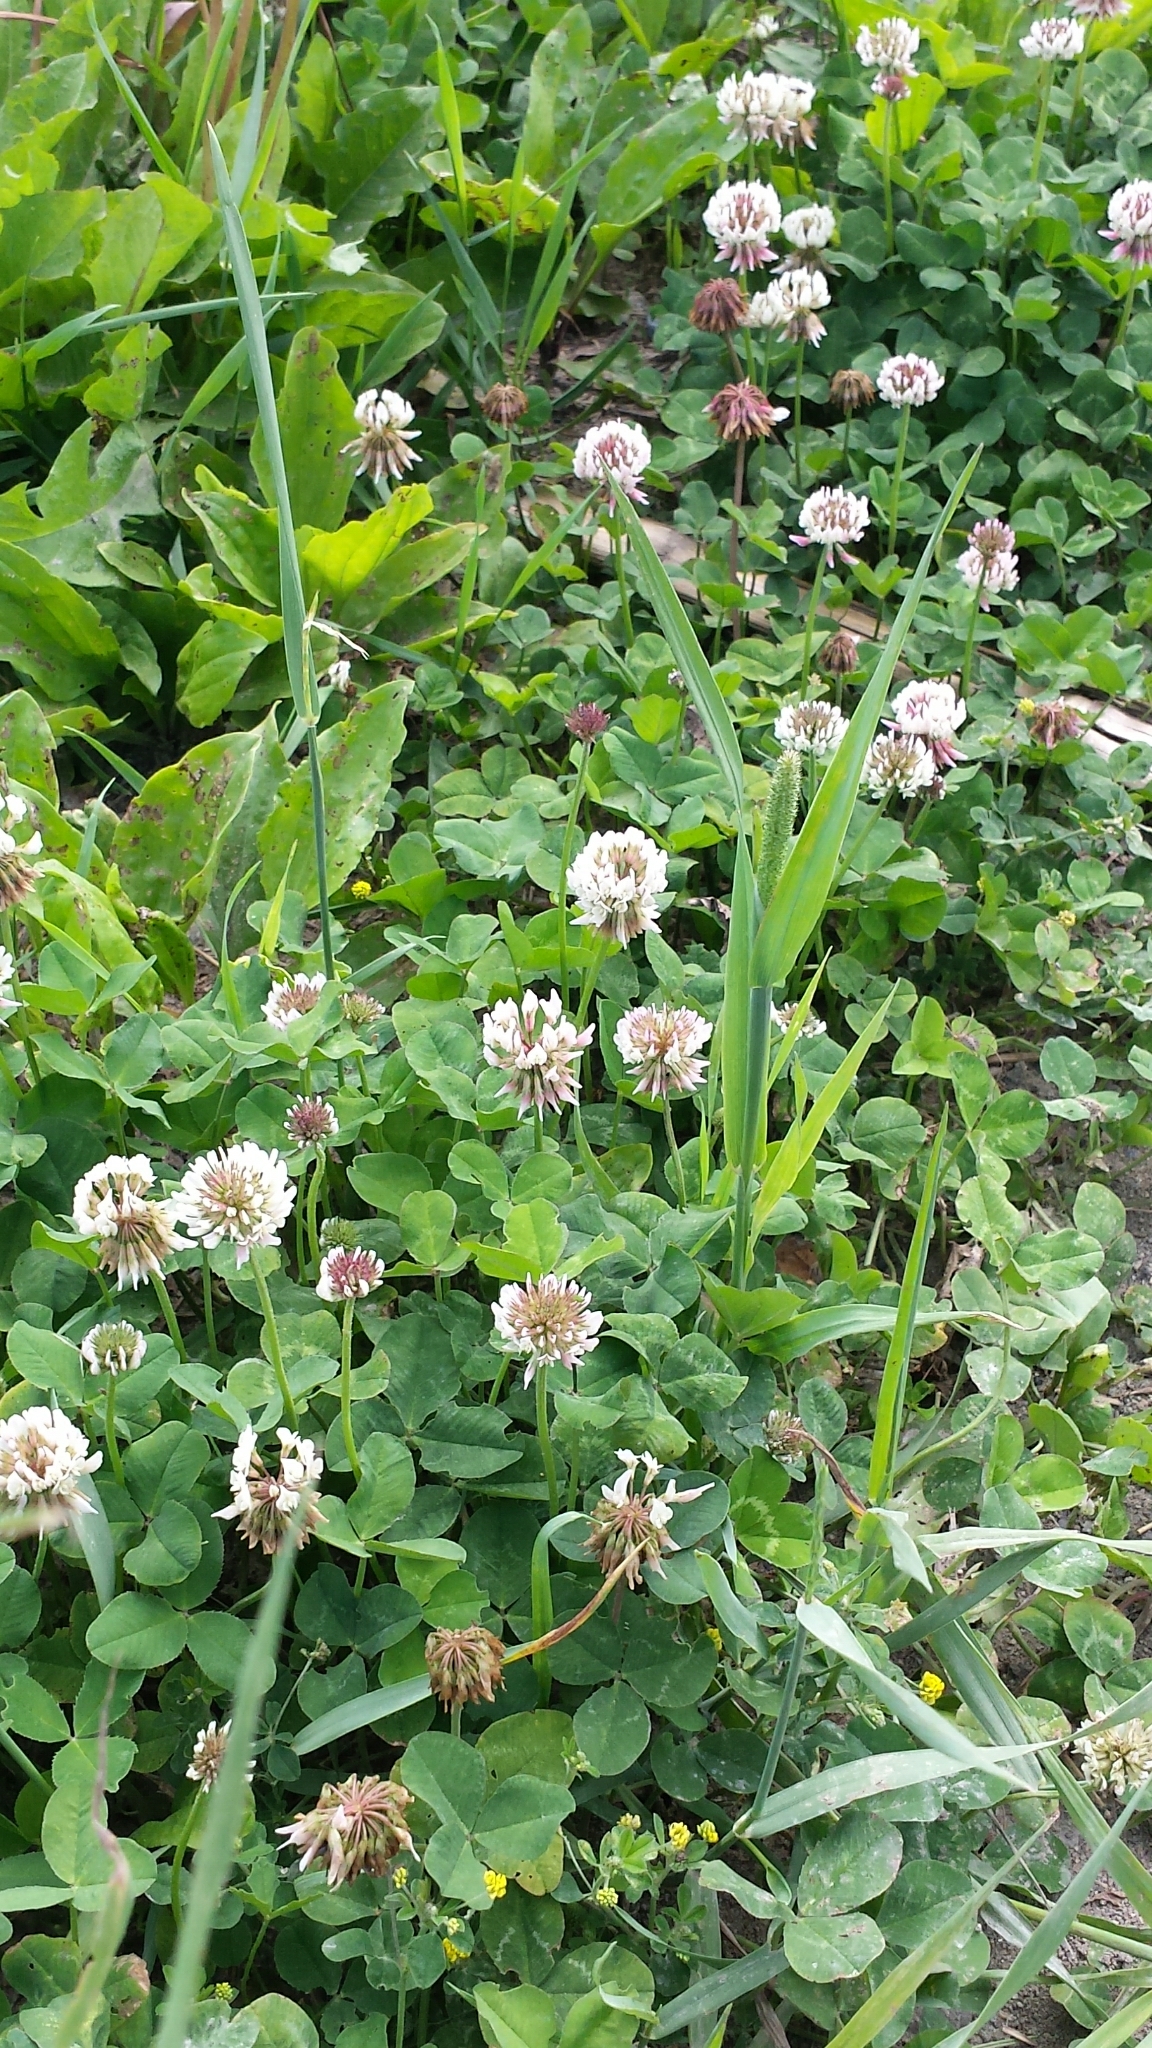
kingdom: Plantae
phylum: Tracheophyta
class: Magnoliopsida
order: Fabales
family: Fabaceae
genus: Trifolium
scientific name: Trifolium repens
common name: White clover
